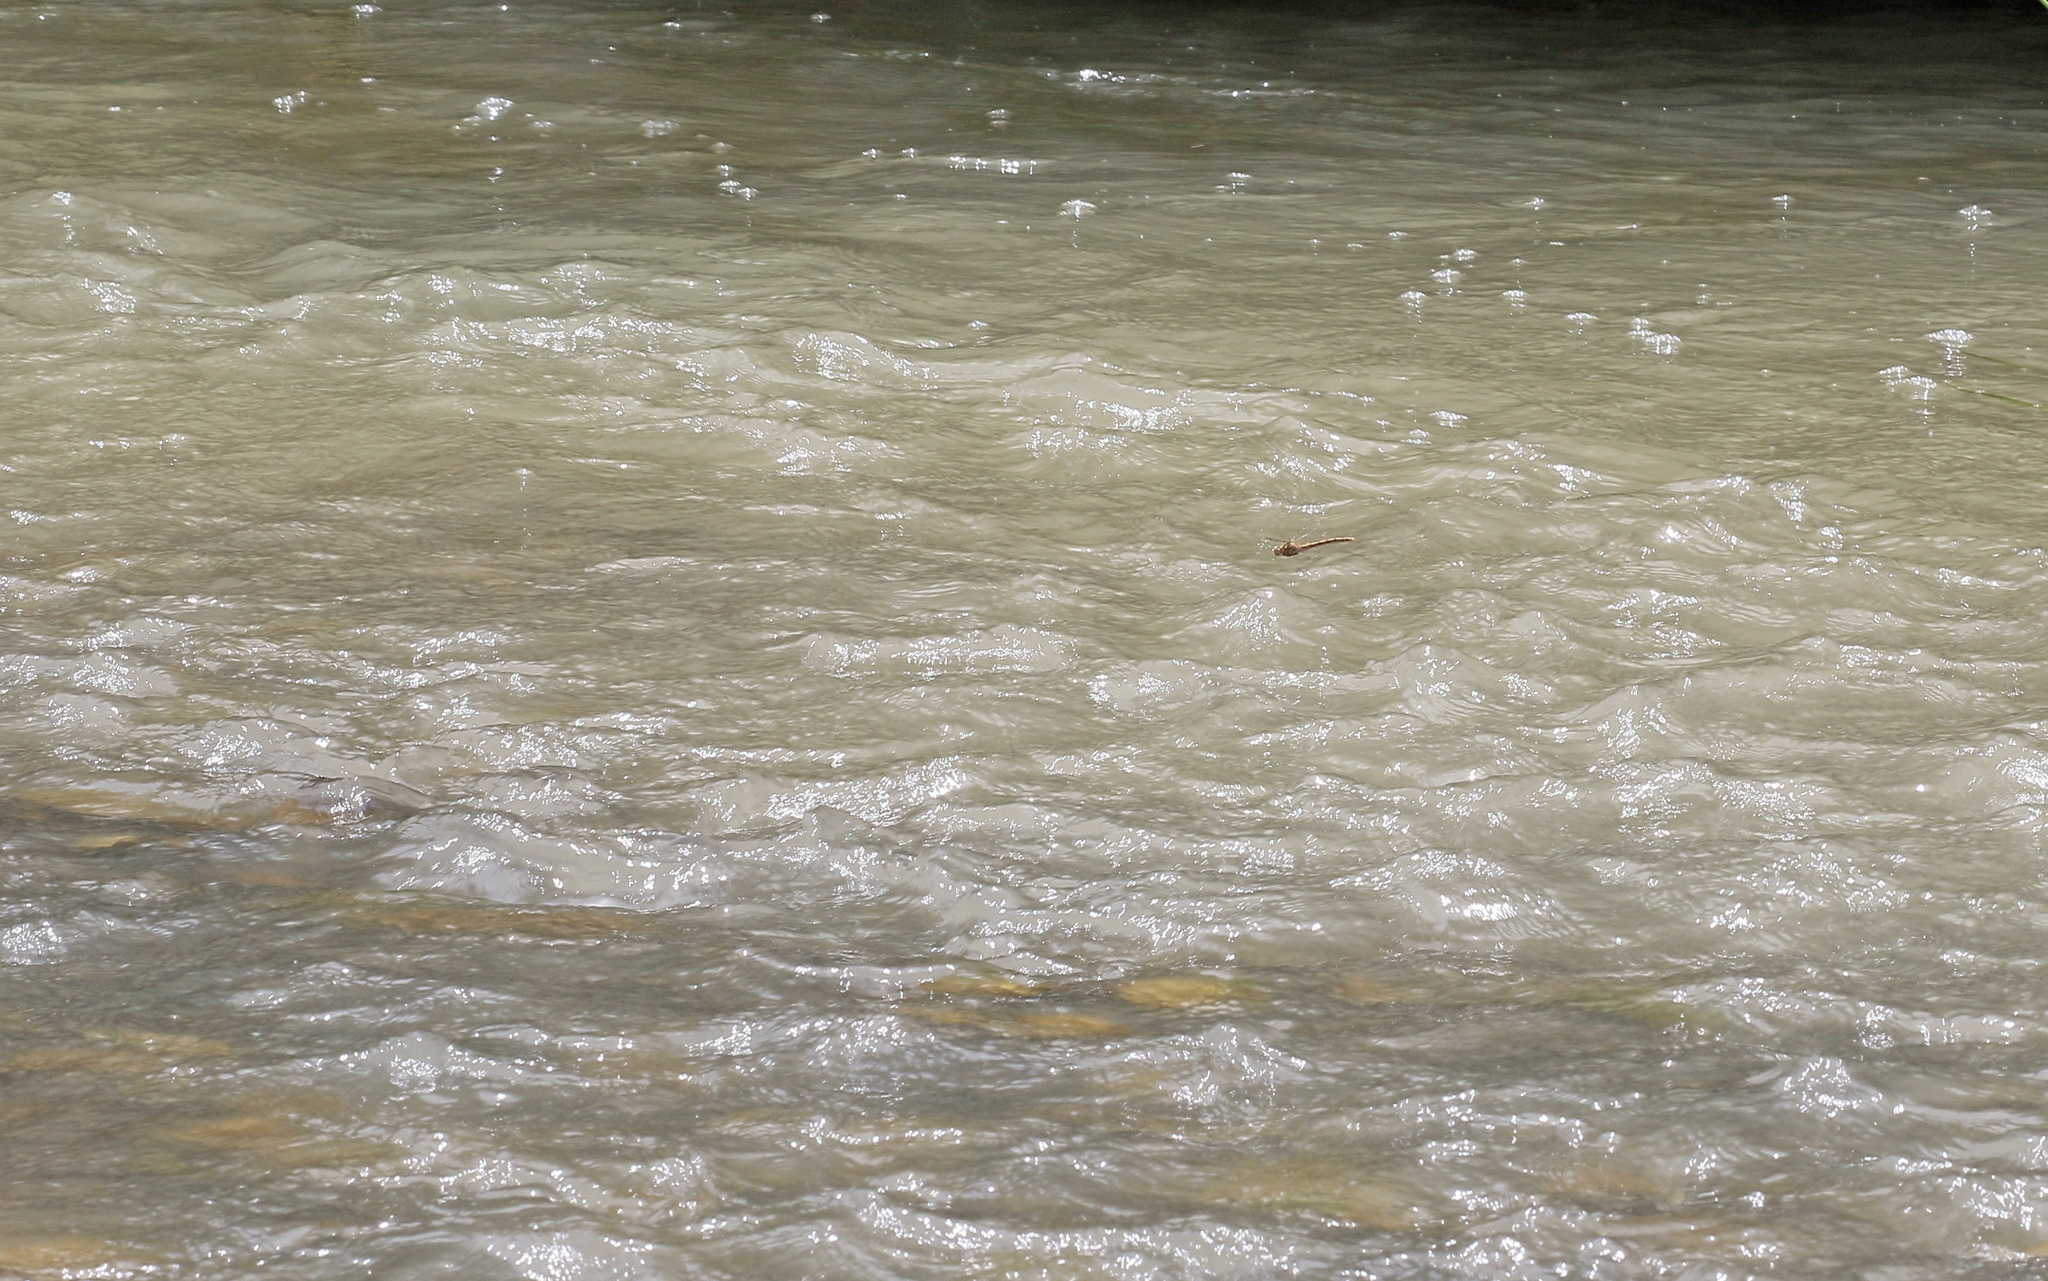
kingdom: Animalia
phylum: Arthropoda
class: Insecta
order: Odonata
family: Gomphidae
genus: Onychogomphus
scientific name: Onychogomphus costae
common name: Faded pincertail
